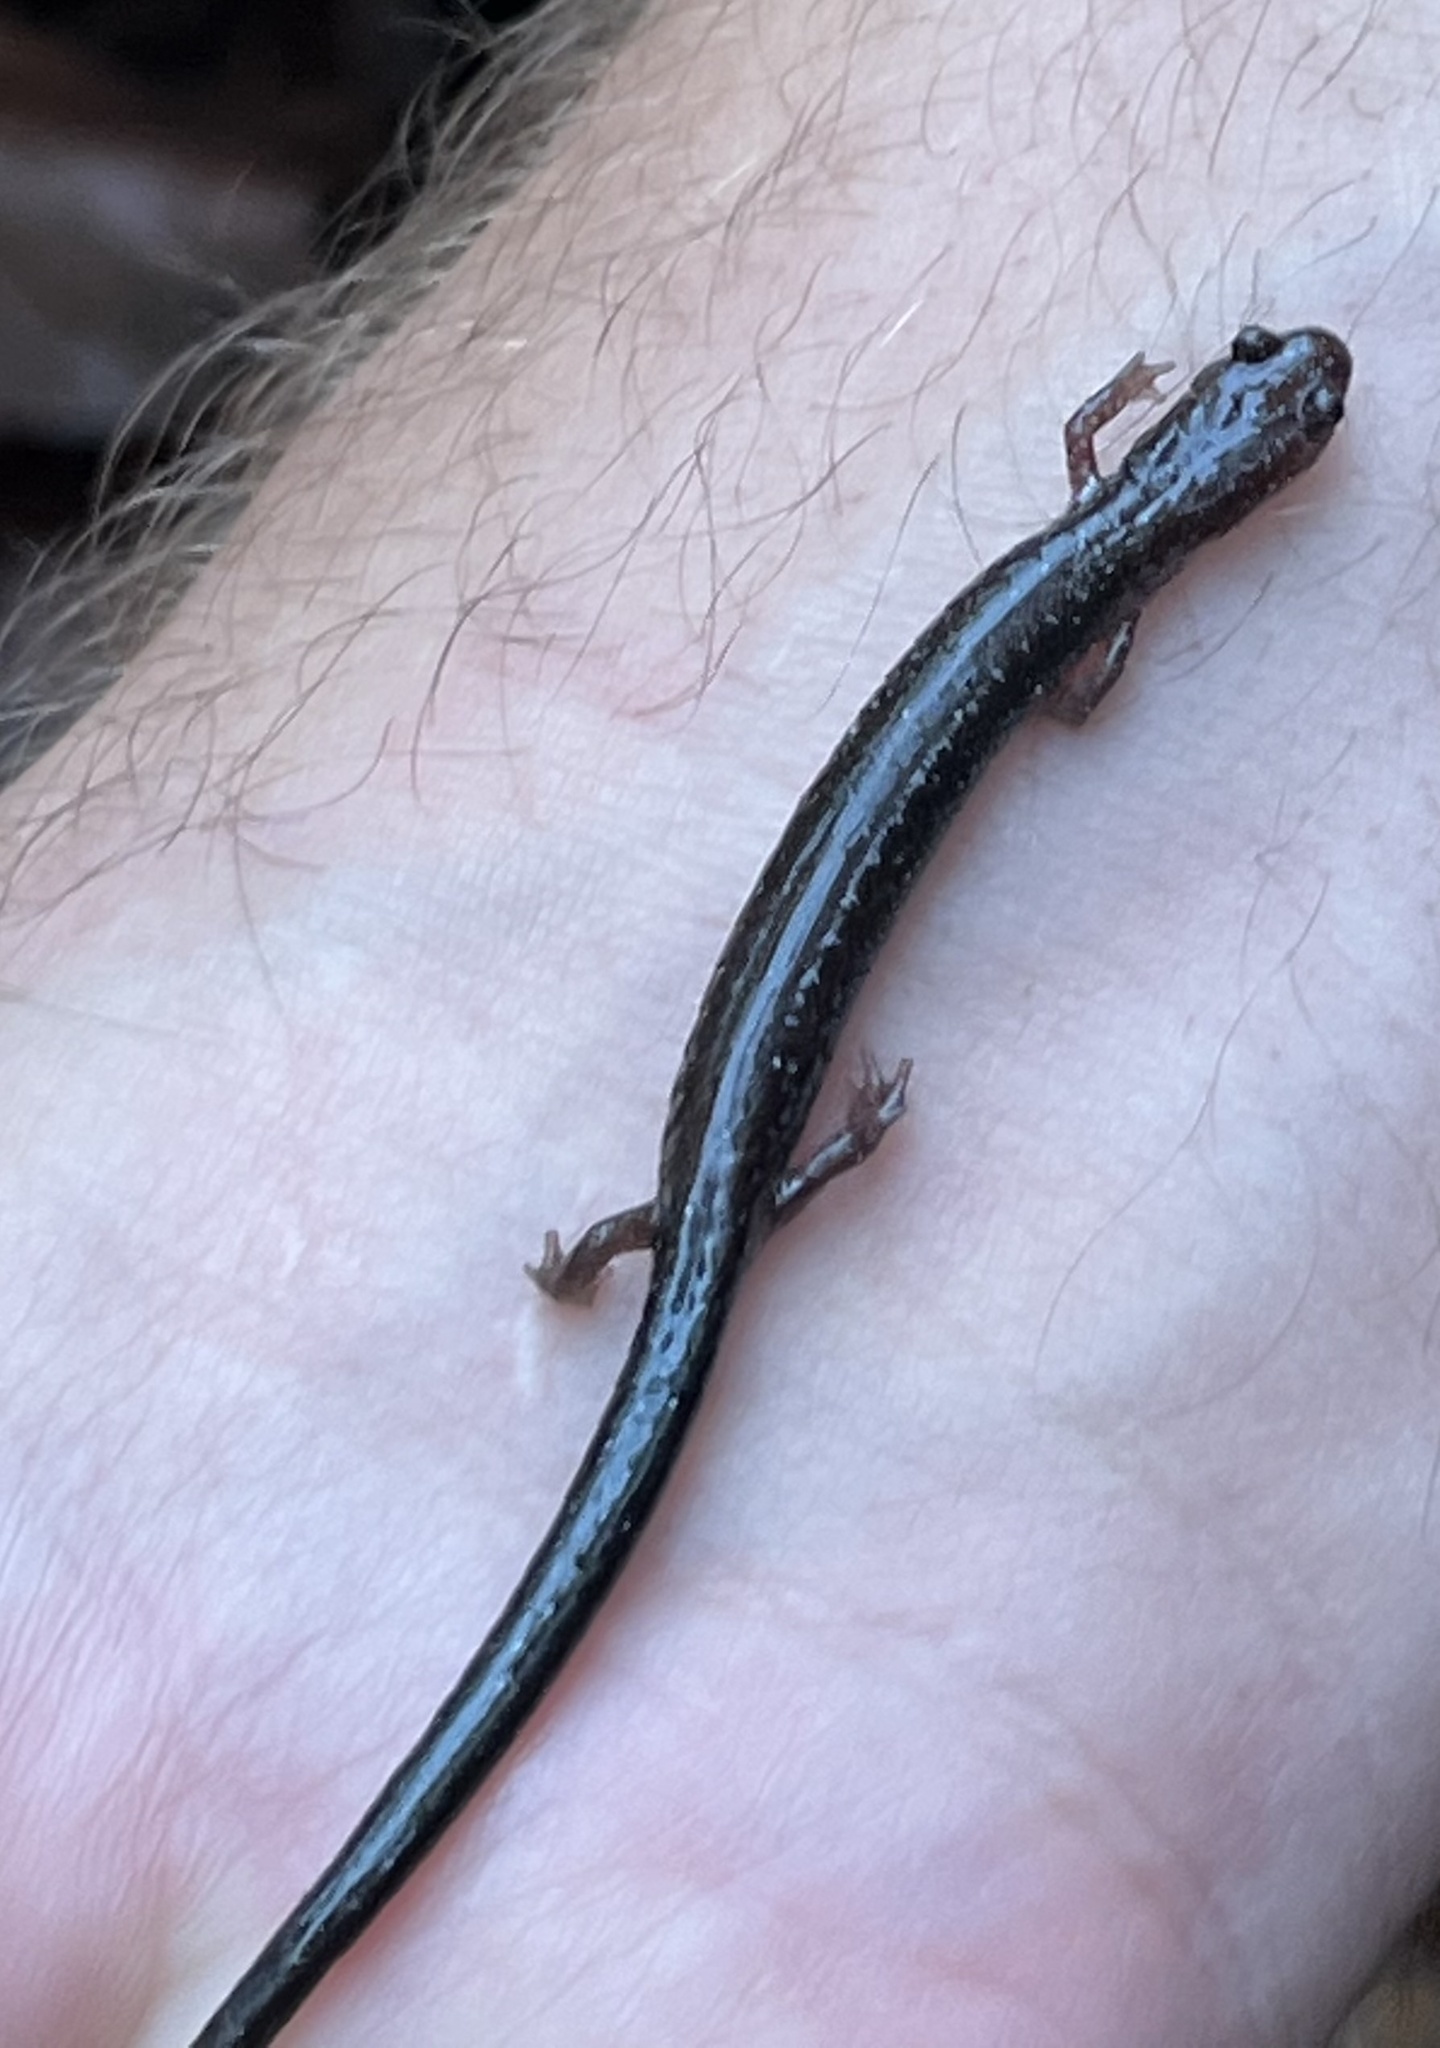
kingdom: Animalia
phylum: Chordata
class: Amphibia
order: Caudata
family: Plethodontidae
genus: Plethodon
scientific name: Plethodon cinereus
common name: Redback salamander
